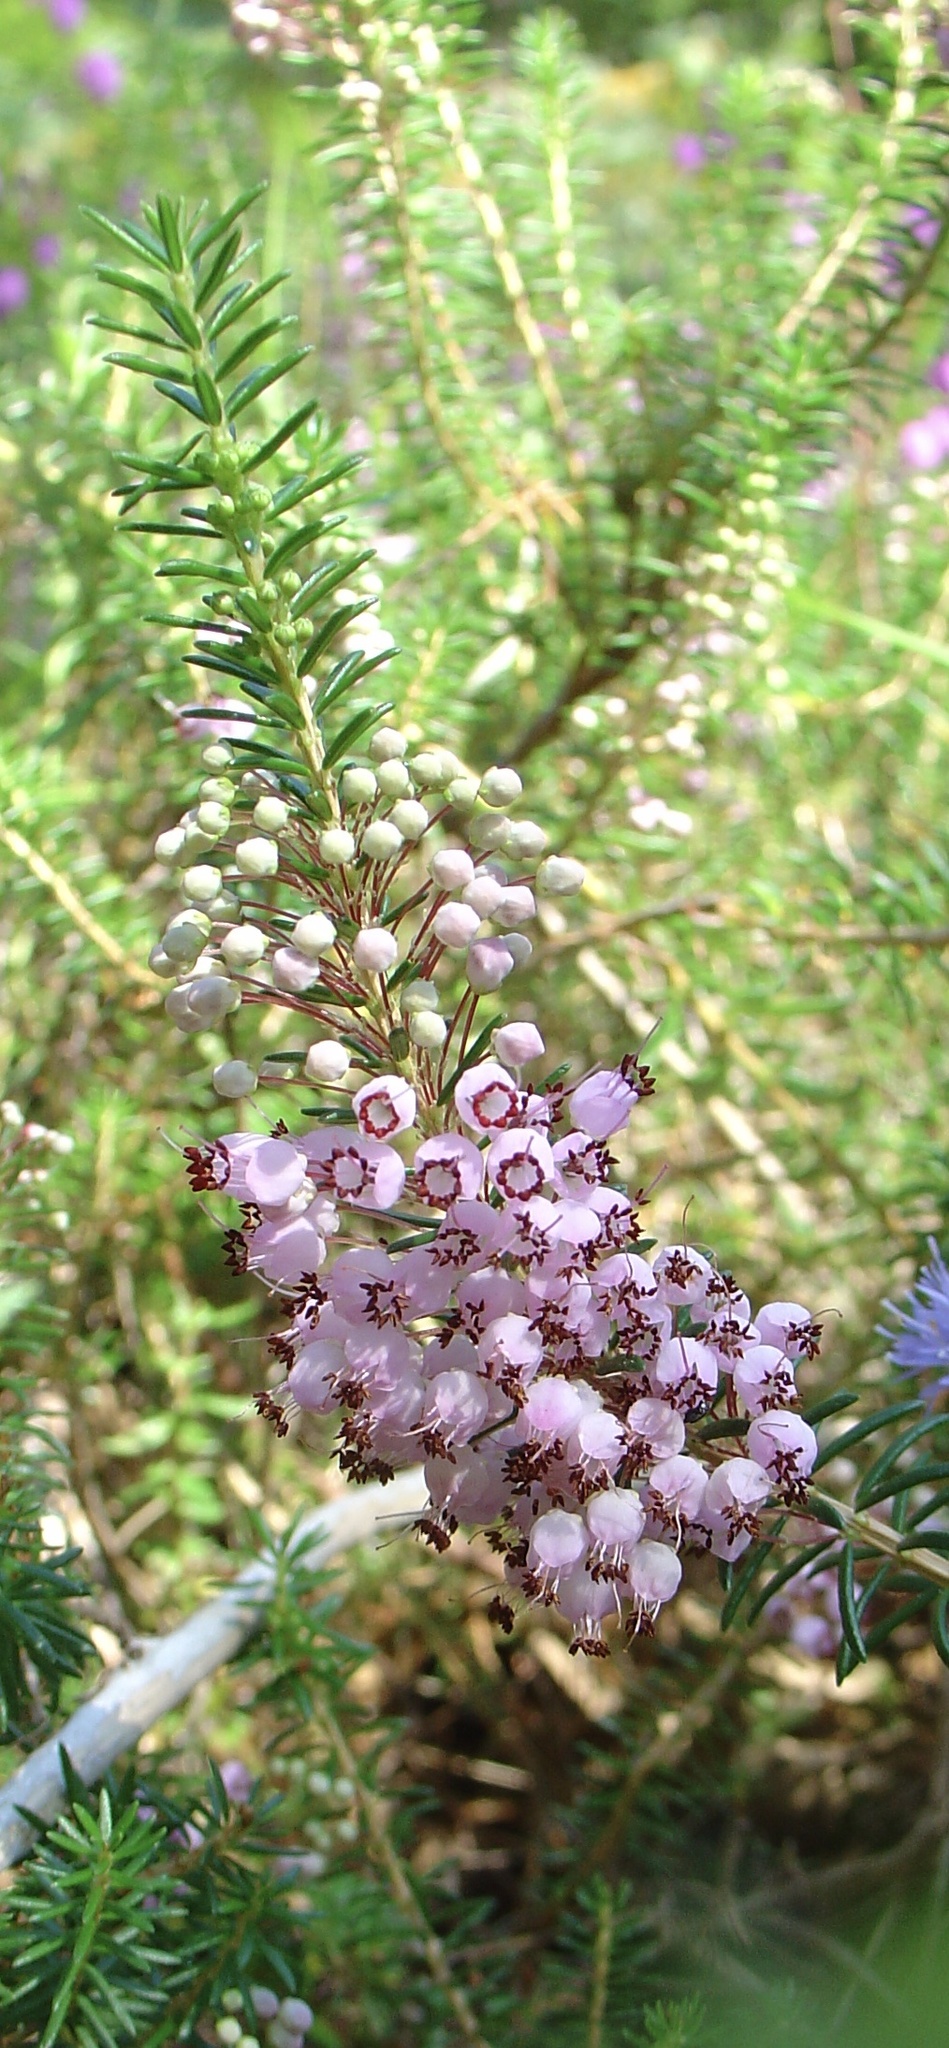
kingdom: Plantae
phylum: Tracheophyta
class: Magnoliopsida
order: Ericales
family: Ericaceae
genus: Erica
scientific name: Erica vagans
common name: Cornish heath
